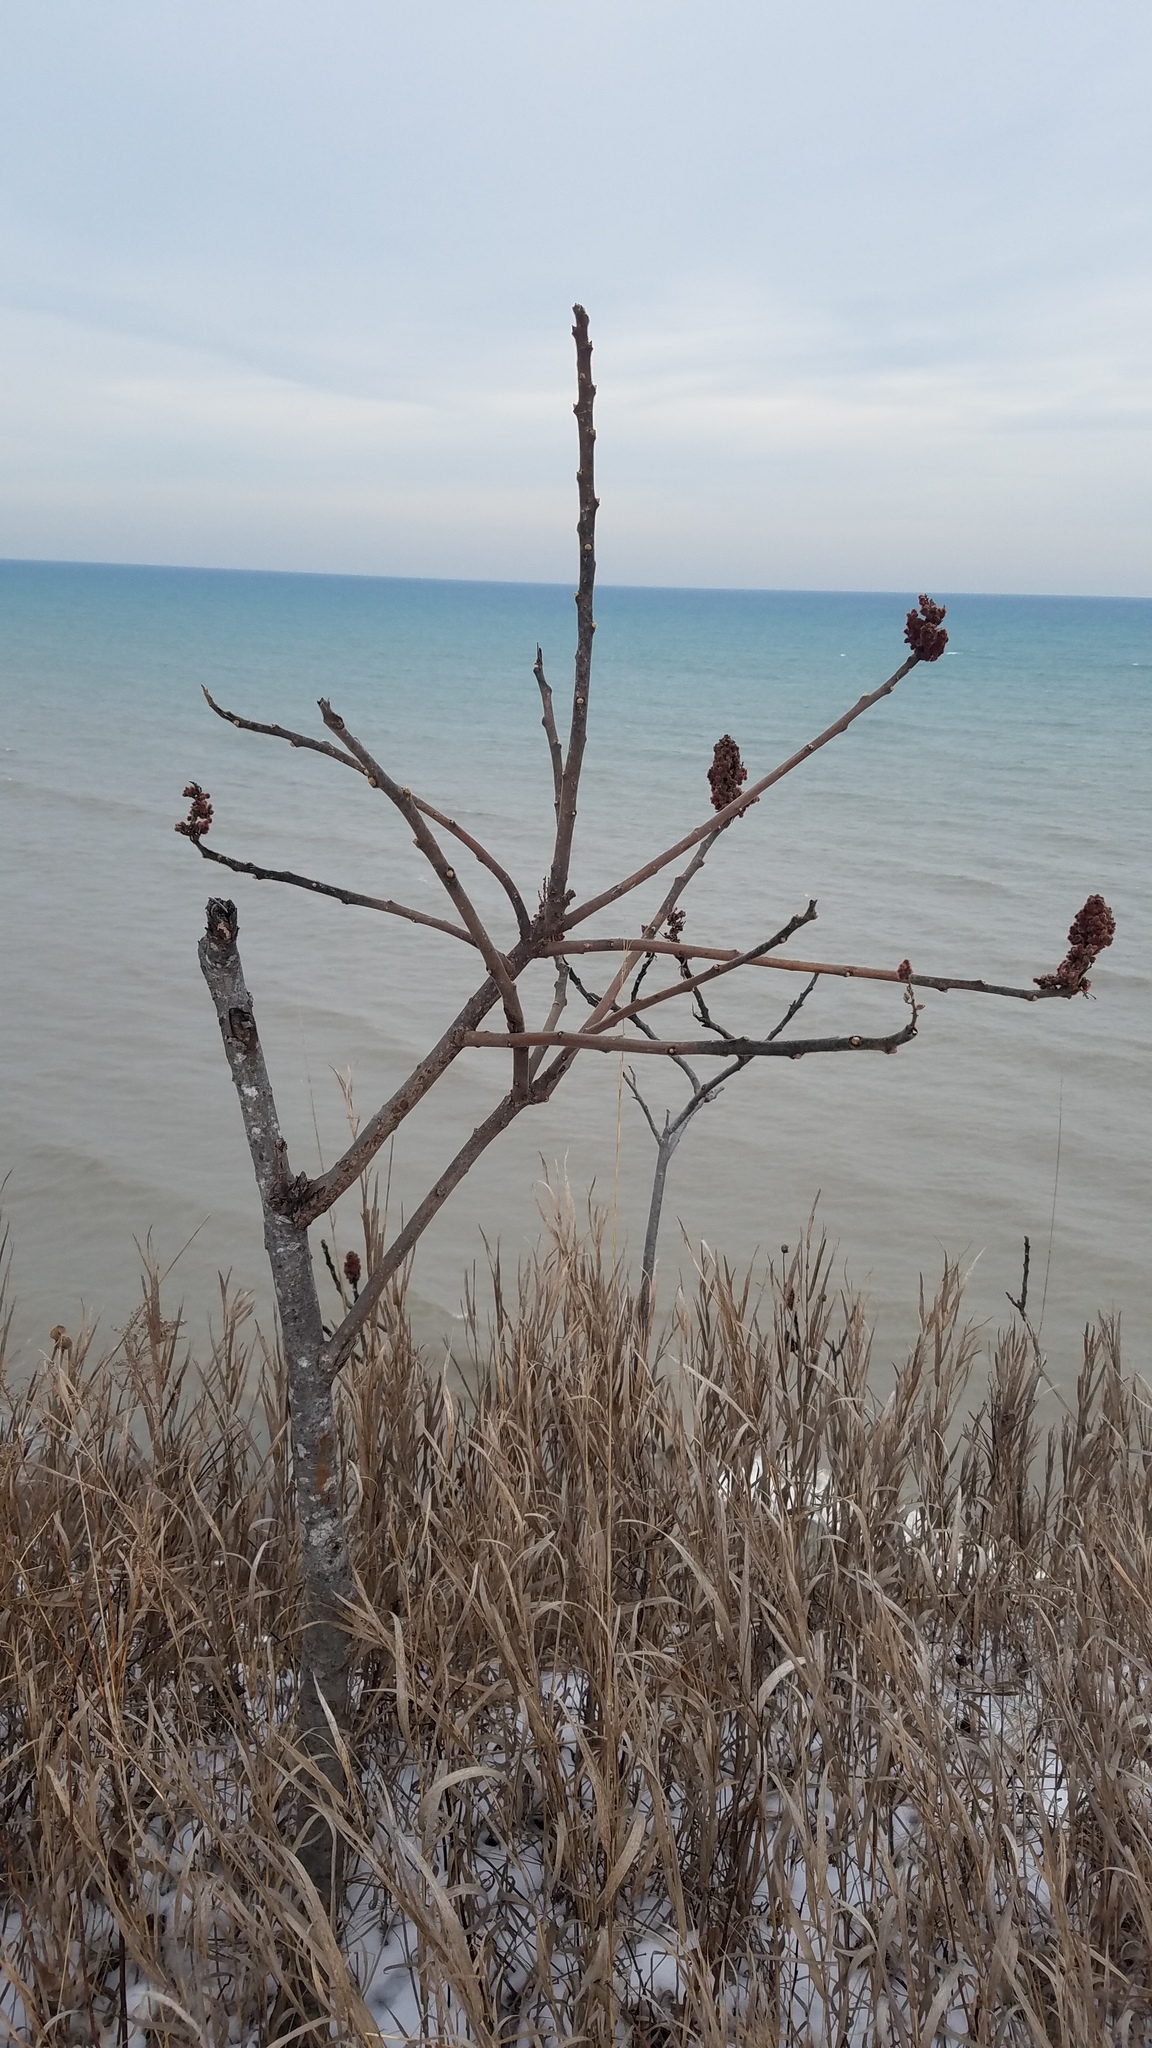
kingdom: Plantae
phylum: Tracheophyta
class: Magnoliopsida
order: Sapindales
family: Anacardiaceae
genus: Rhus
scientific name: Rhus typhina
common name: Staghorn sumac
